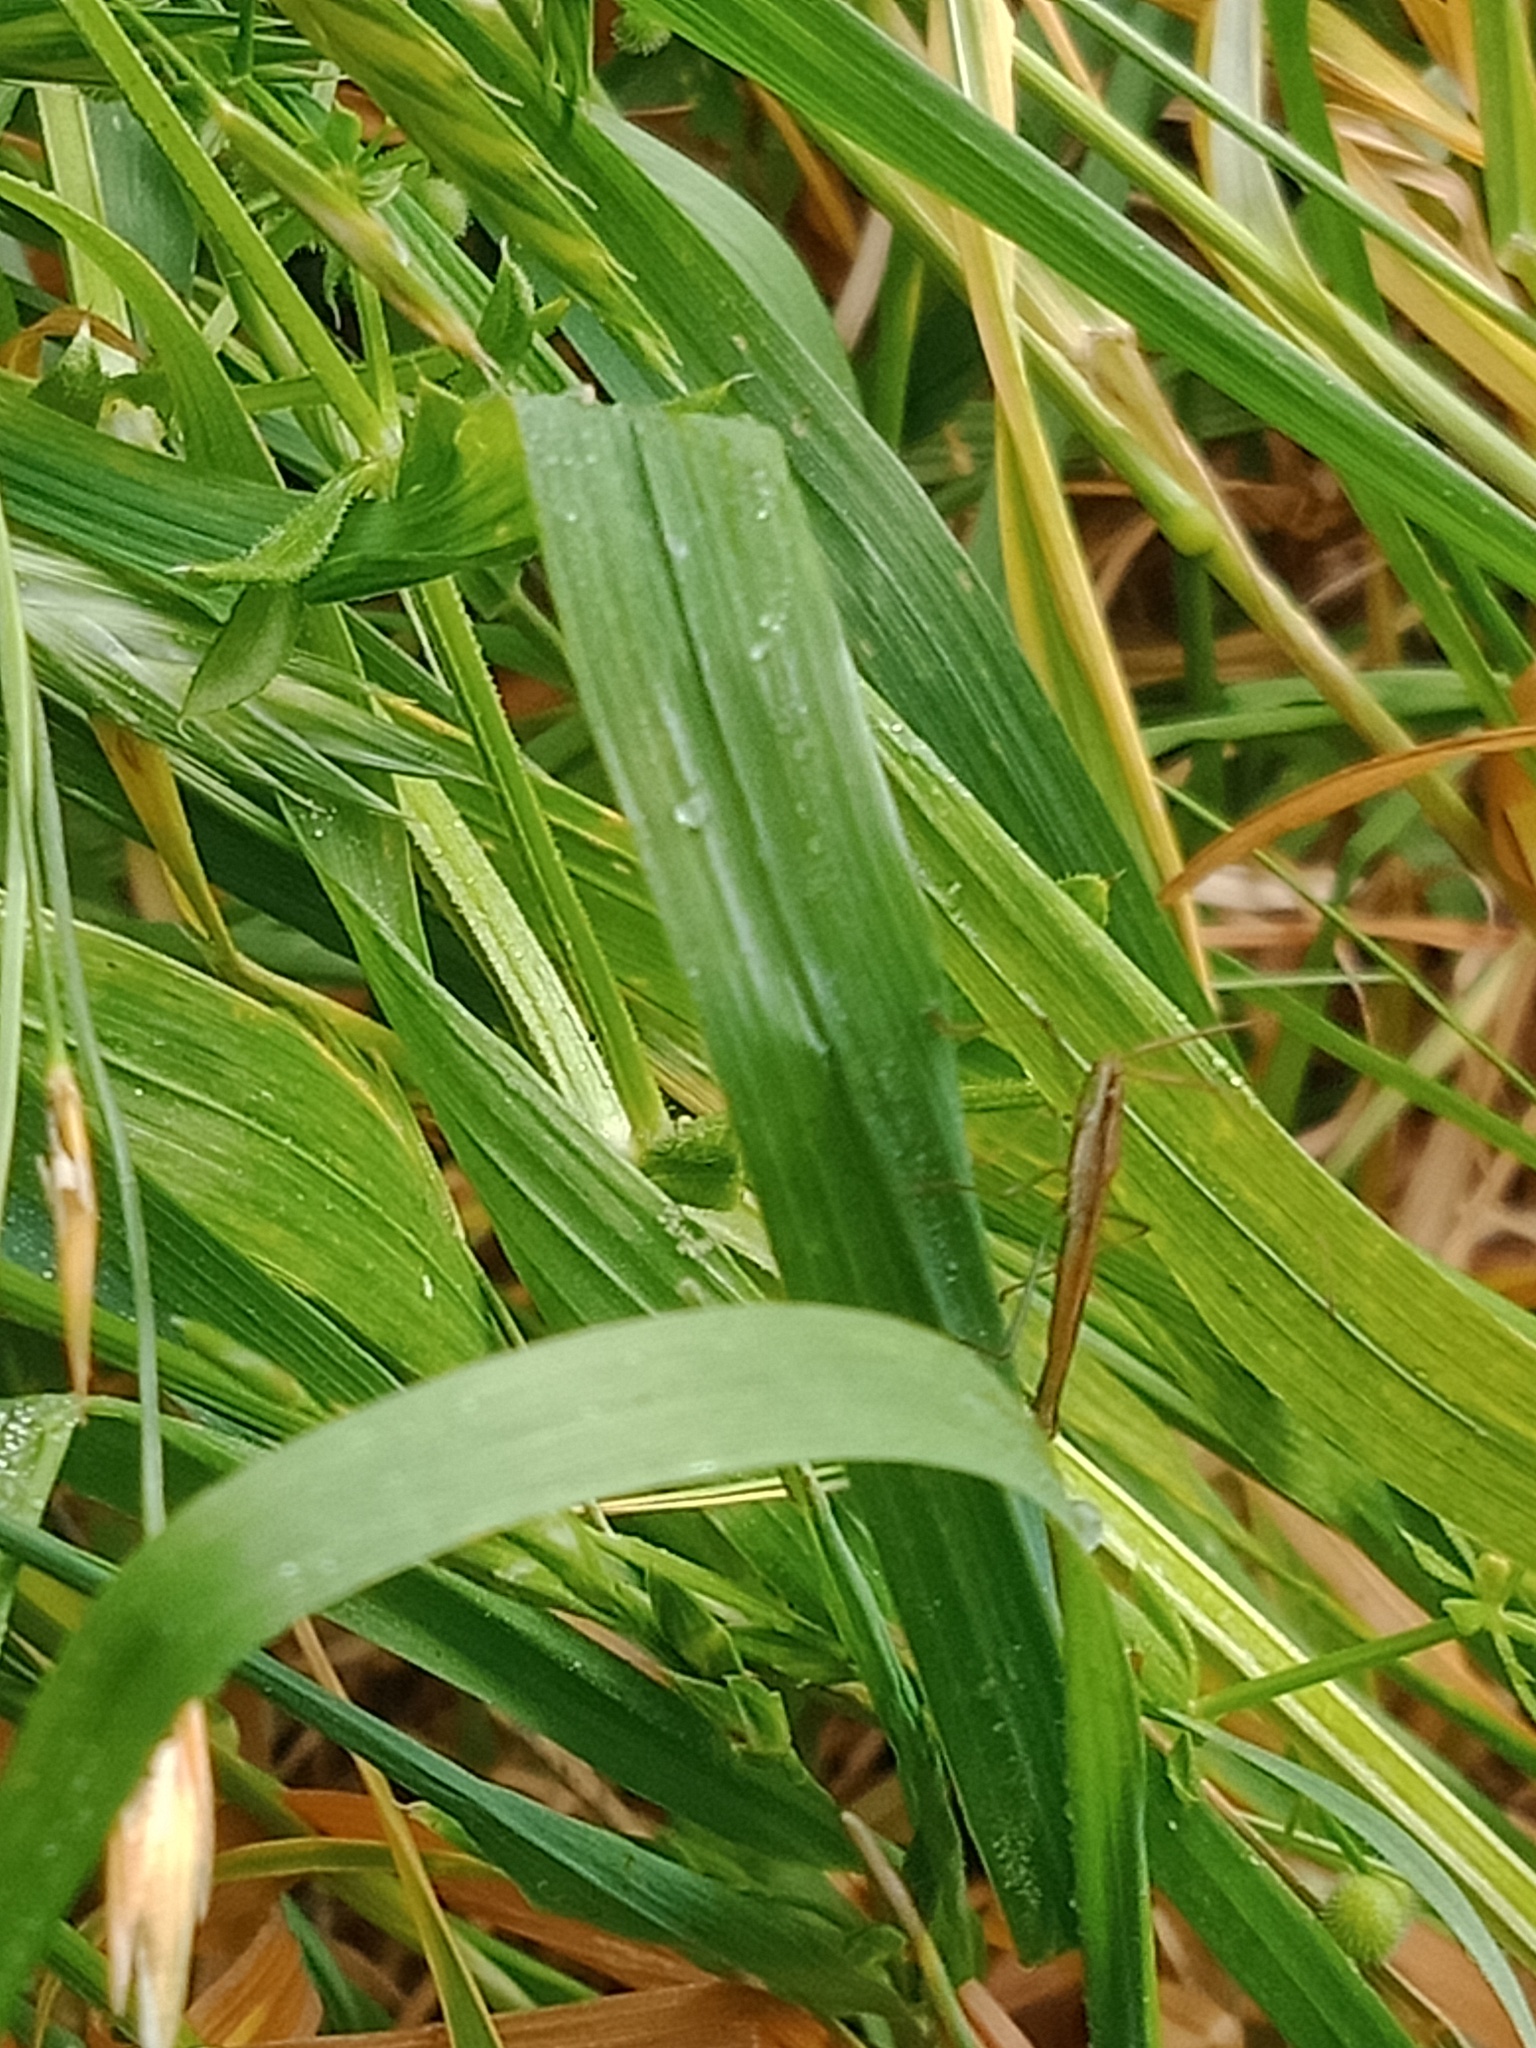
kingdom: Animalia
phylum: Arthropoda
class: Insecta
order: Hemiptera
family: Alydidae
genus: Mutusca
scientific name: Mutusca brevicornis
